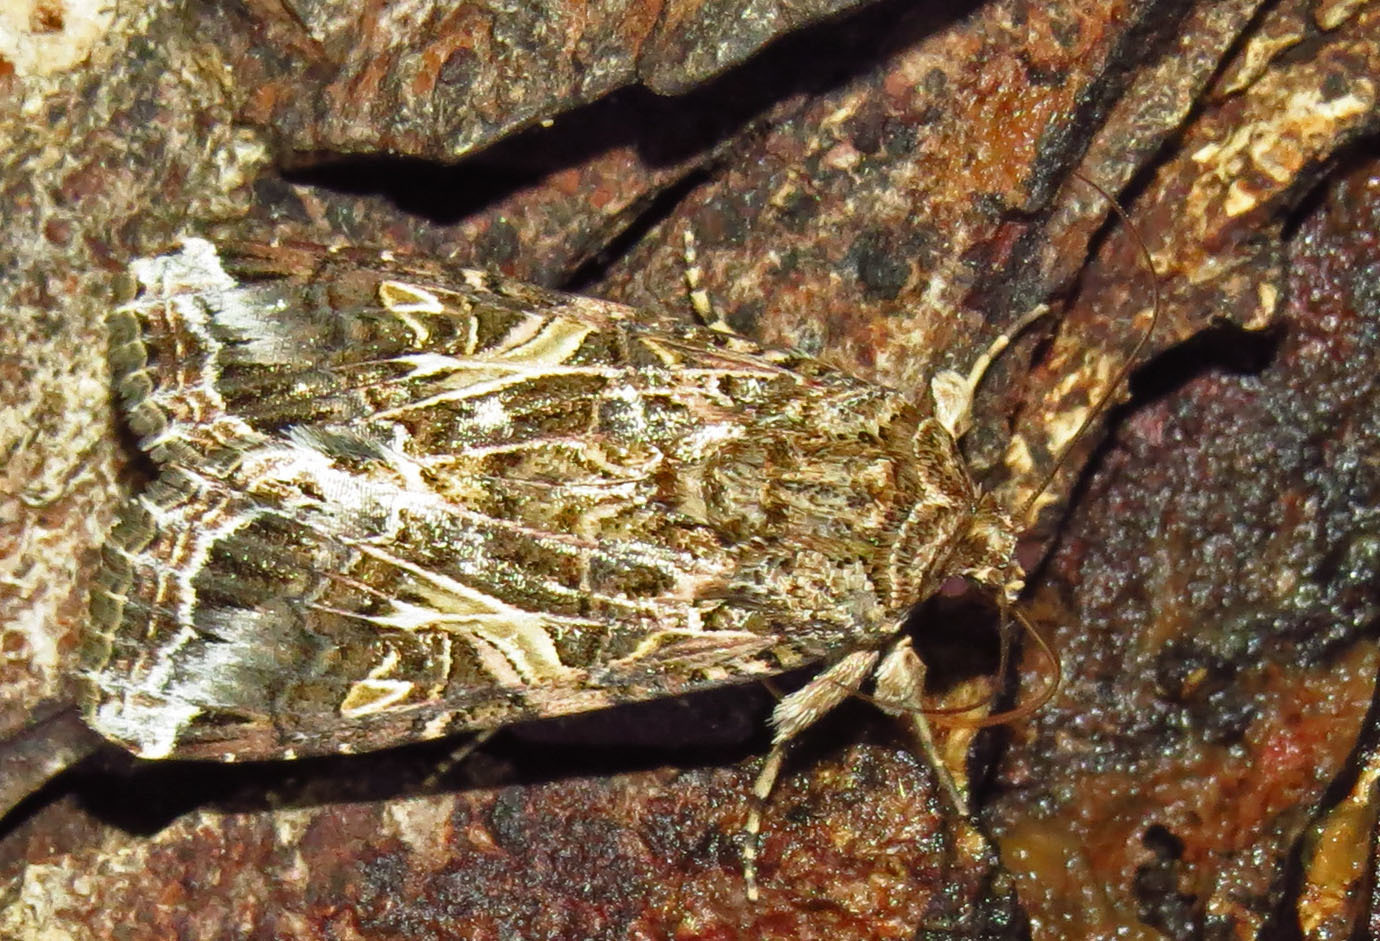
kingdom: Animalia
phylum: Arthropoda
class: Insecta
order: Lepidoptera
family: Noctuidae
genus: Spodoptera
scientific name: Spodoptera ornithogalli
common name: Yellow-striped armyworm
